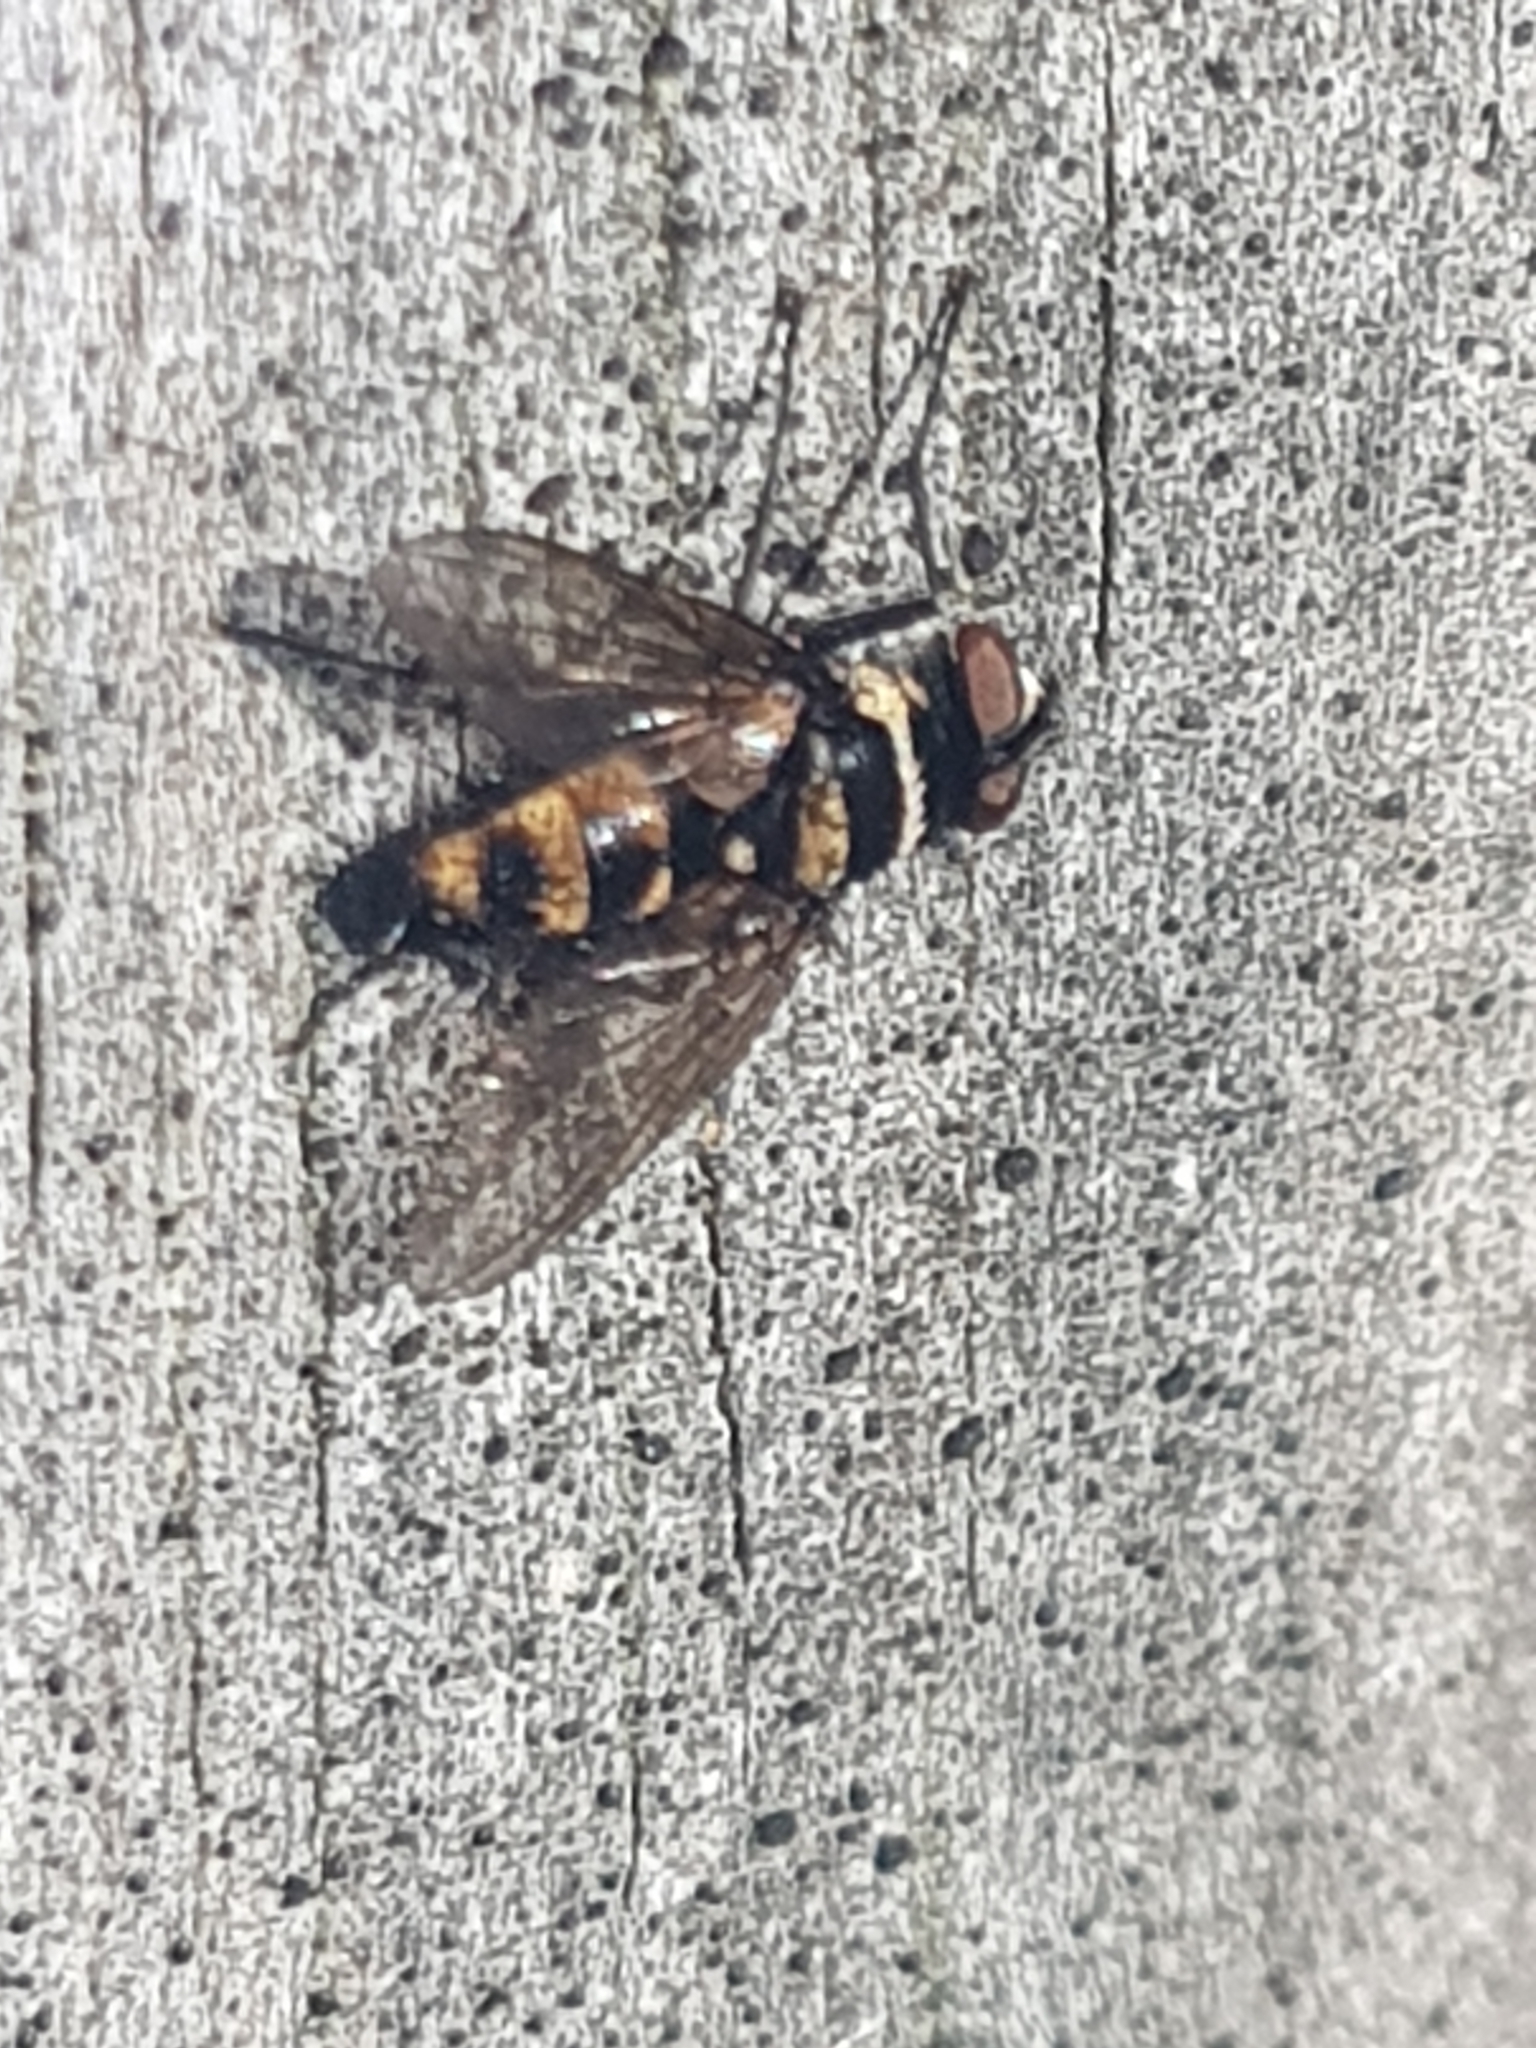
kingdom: Animalia
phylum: Arthropoda
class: Insecta
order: Diptera
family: Tachinidae
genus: Trigonospila
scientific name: Trigonospila brevifacies
